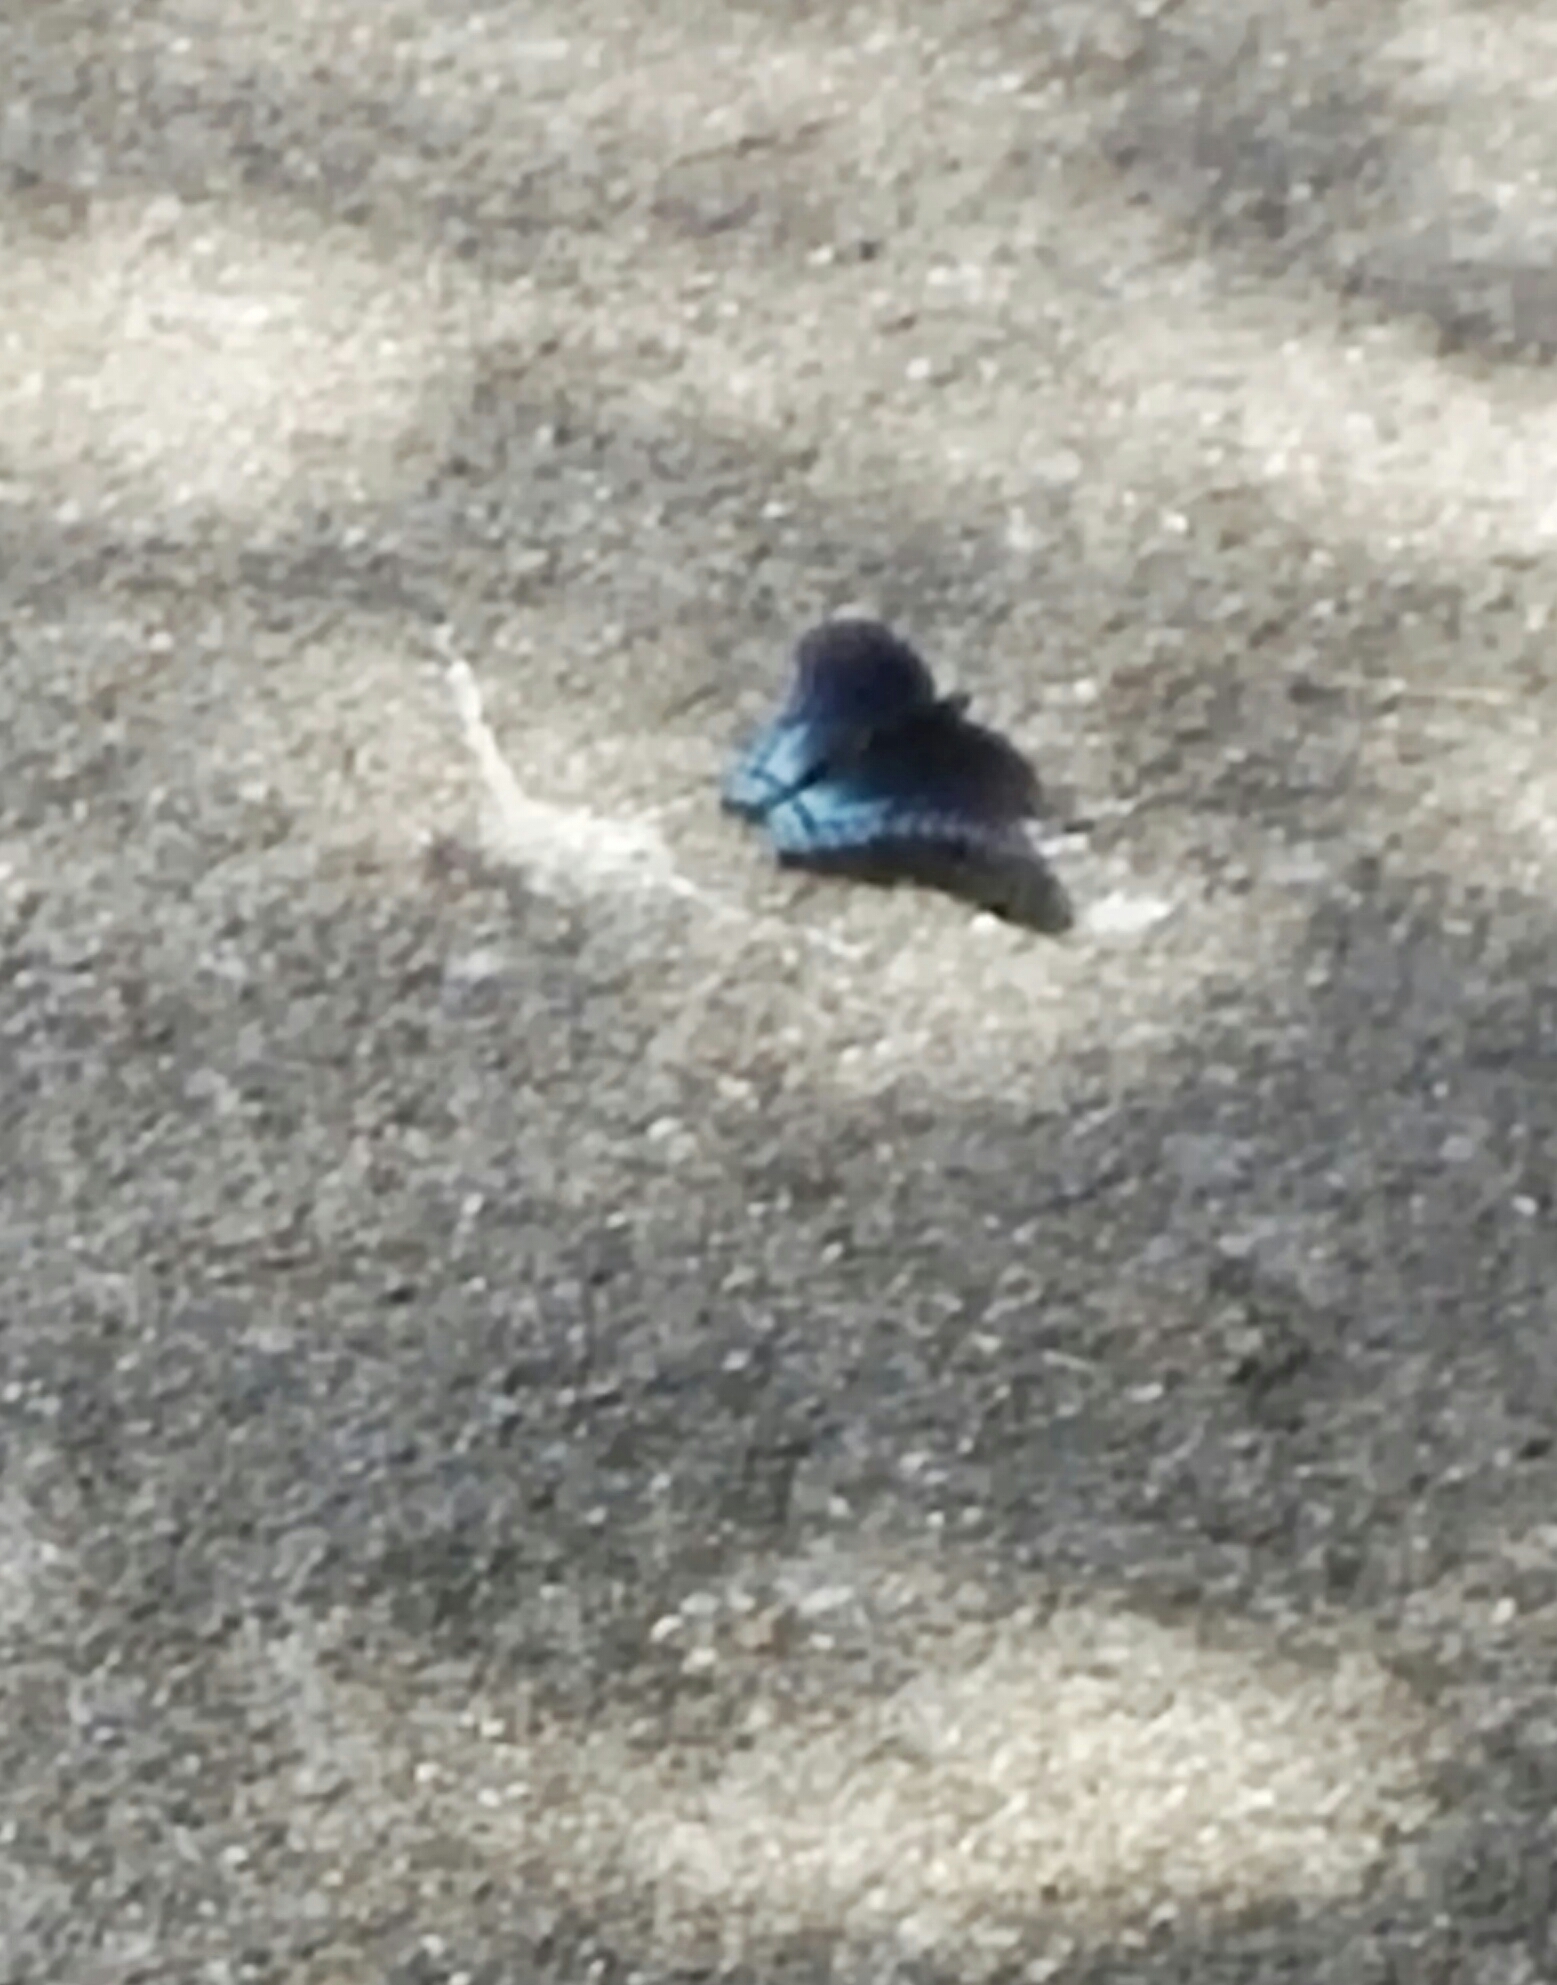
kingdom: Animalia
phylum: Arthropoda
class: Insecta
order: Lepidoptera
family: Nymphalidae
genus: Limenitis
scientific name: Limenitis astyanax
